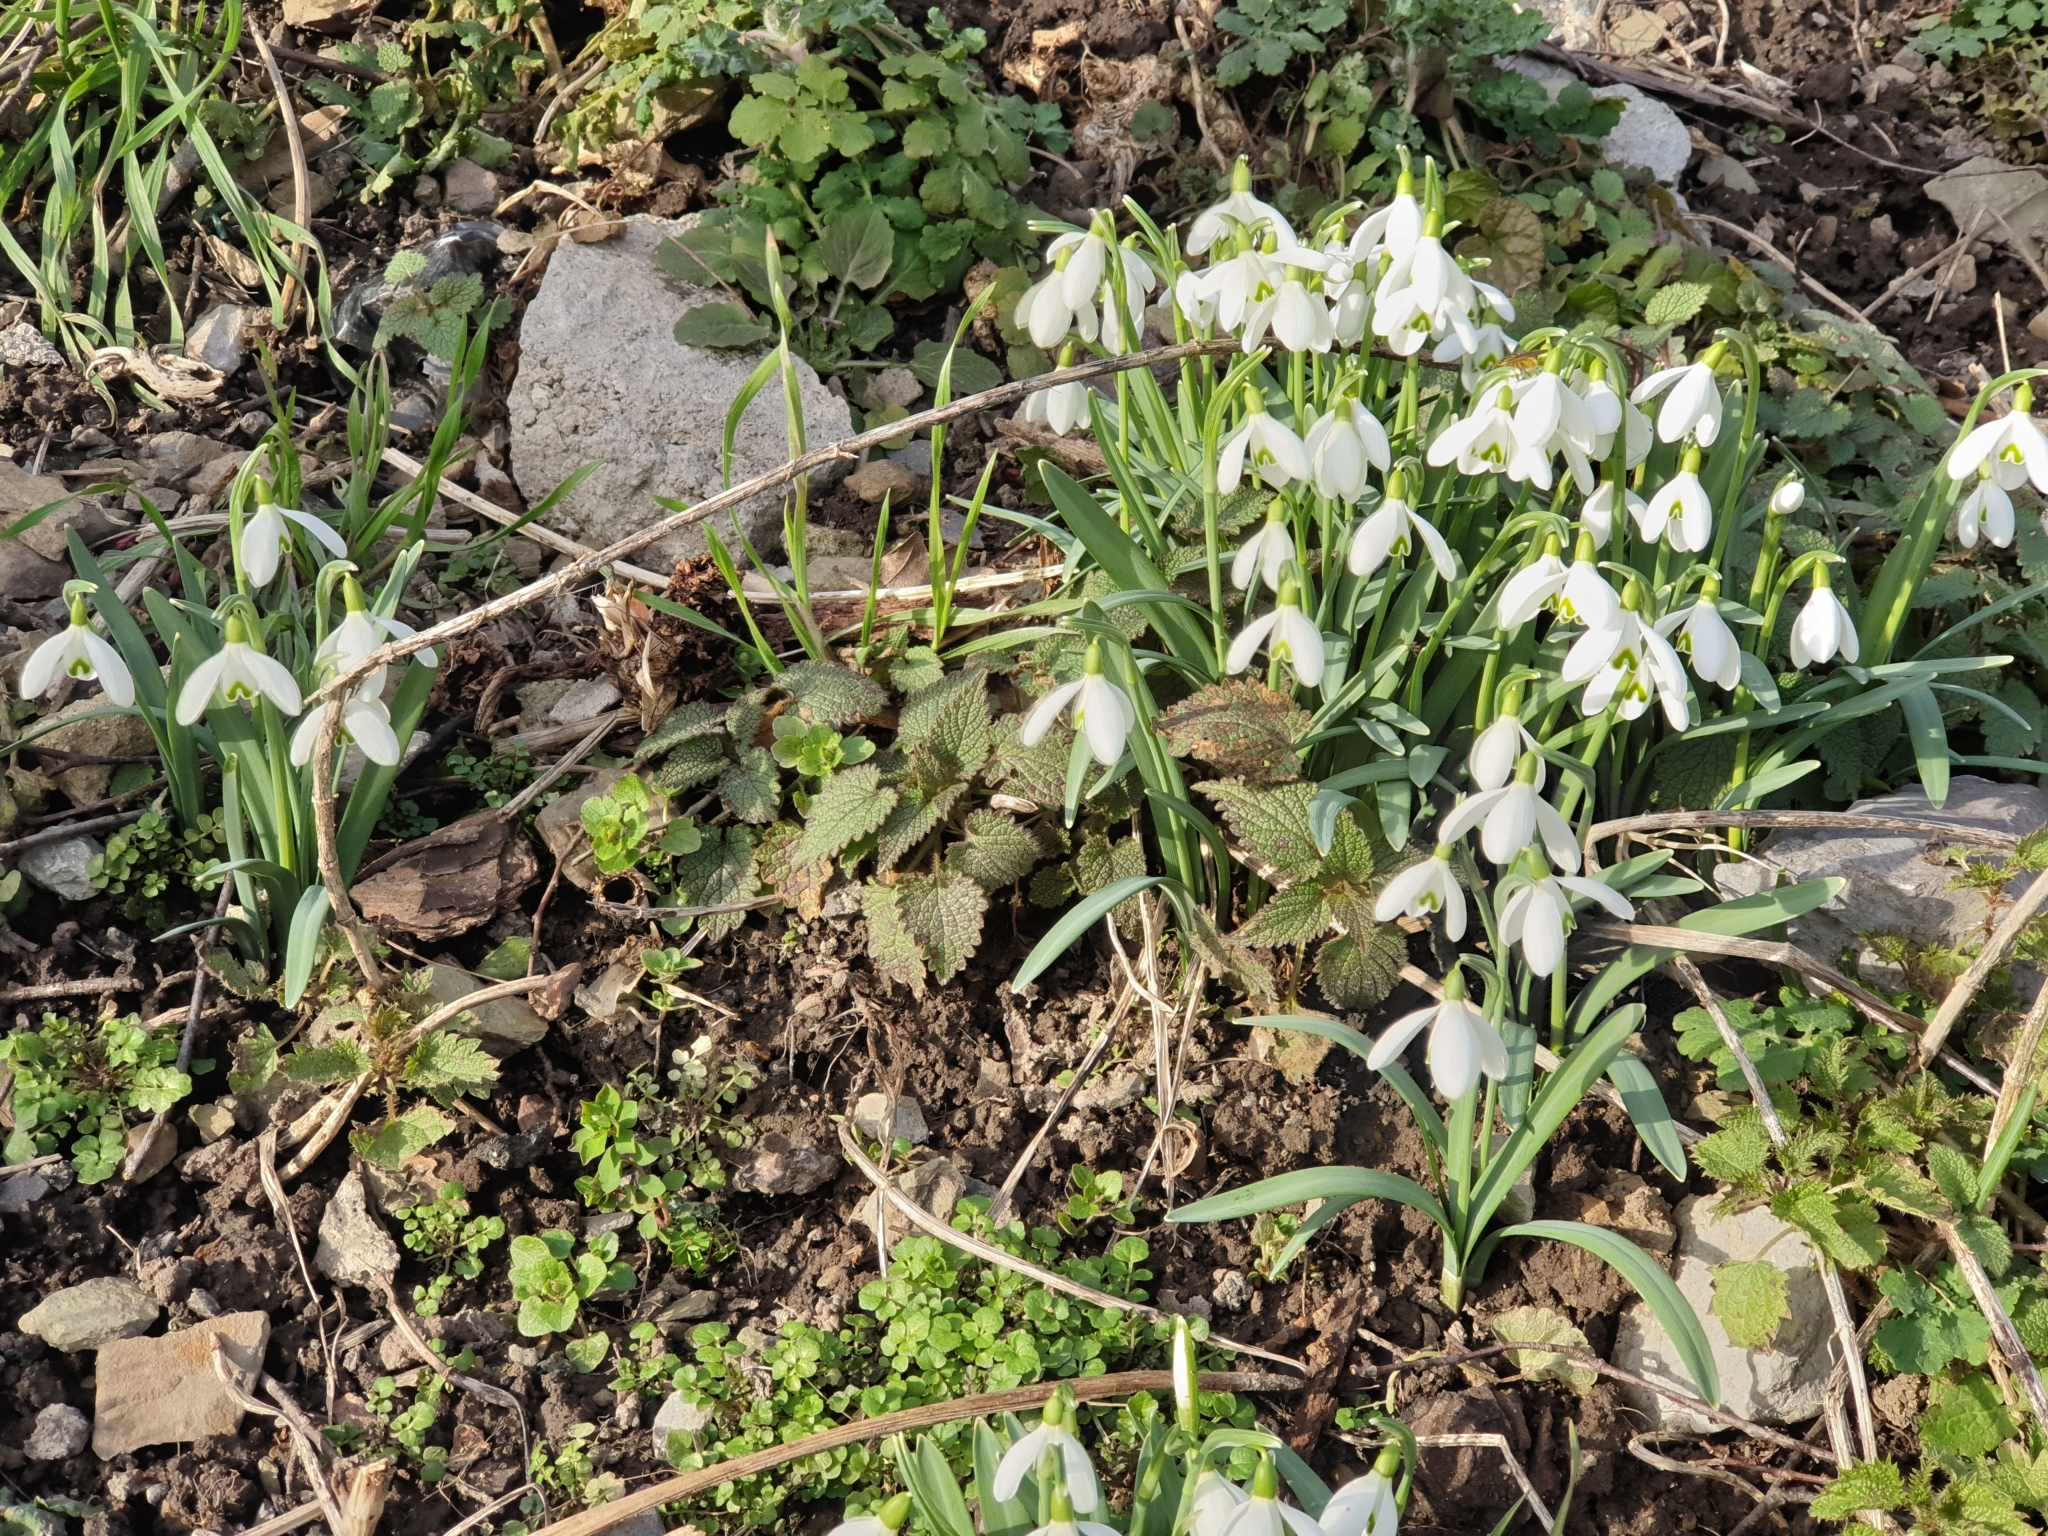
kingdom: Plantae
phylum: Tracheophyta
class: Liliopsida
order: Asparagales
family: Amaryllidaceae
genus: Galanthus
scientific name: Galanthus nivalis
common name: Snowdrop
